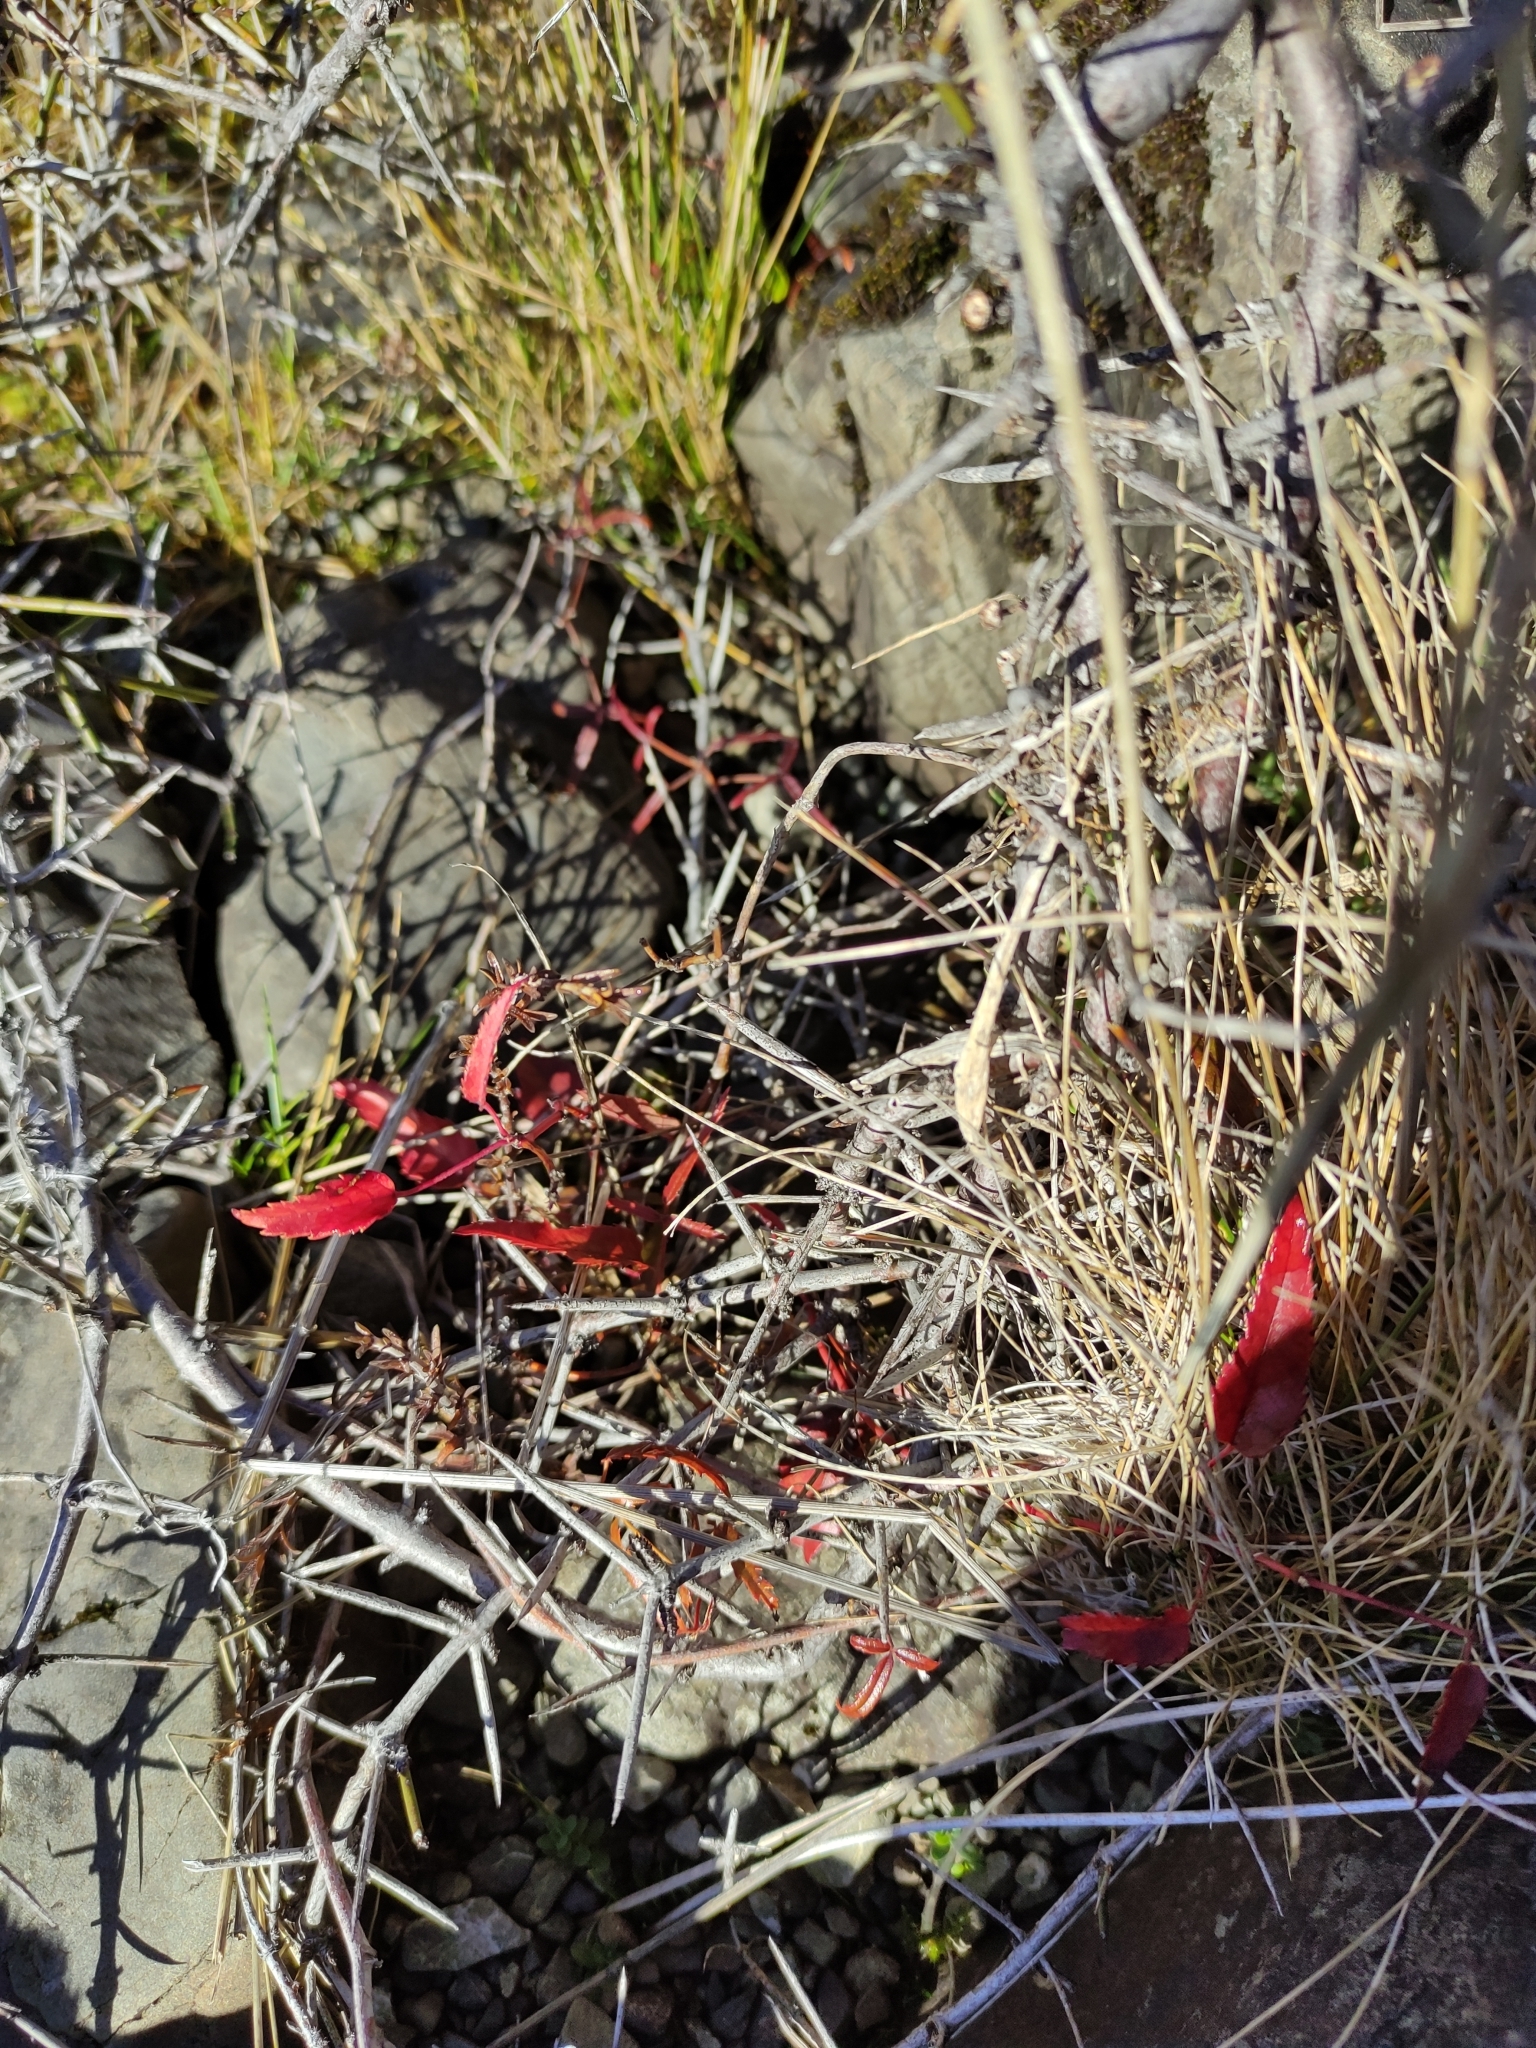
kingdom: Plantae
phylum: Tracheophyta
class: Magnoliopsida
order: Rosales
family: Rosaceae
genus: Rubus
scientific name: Rubus schmidelioides
